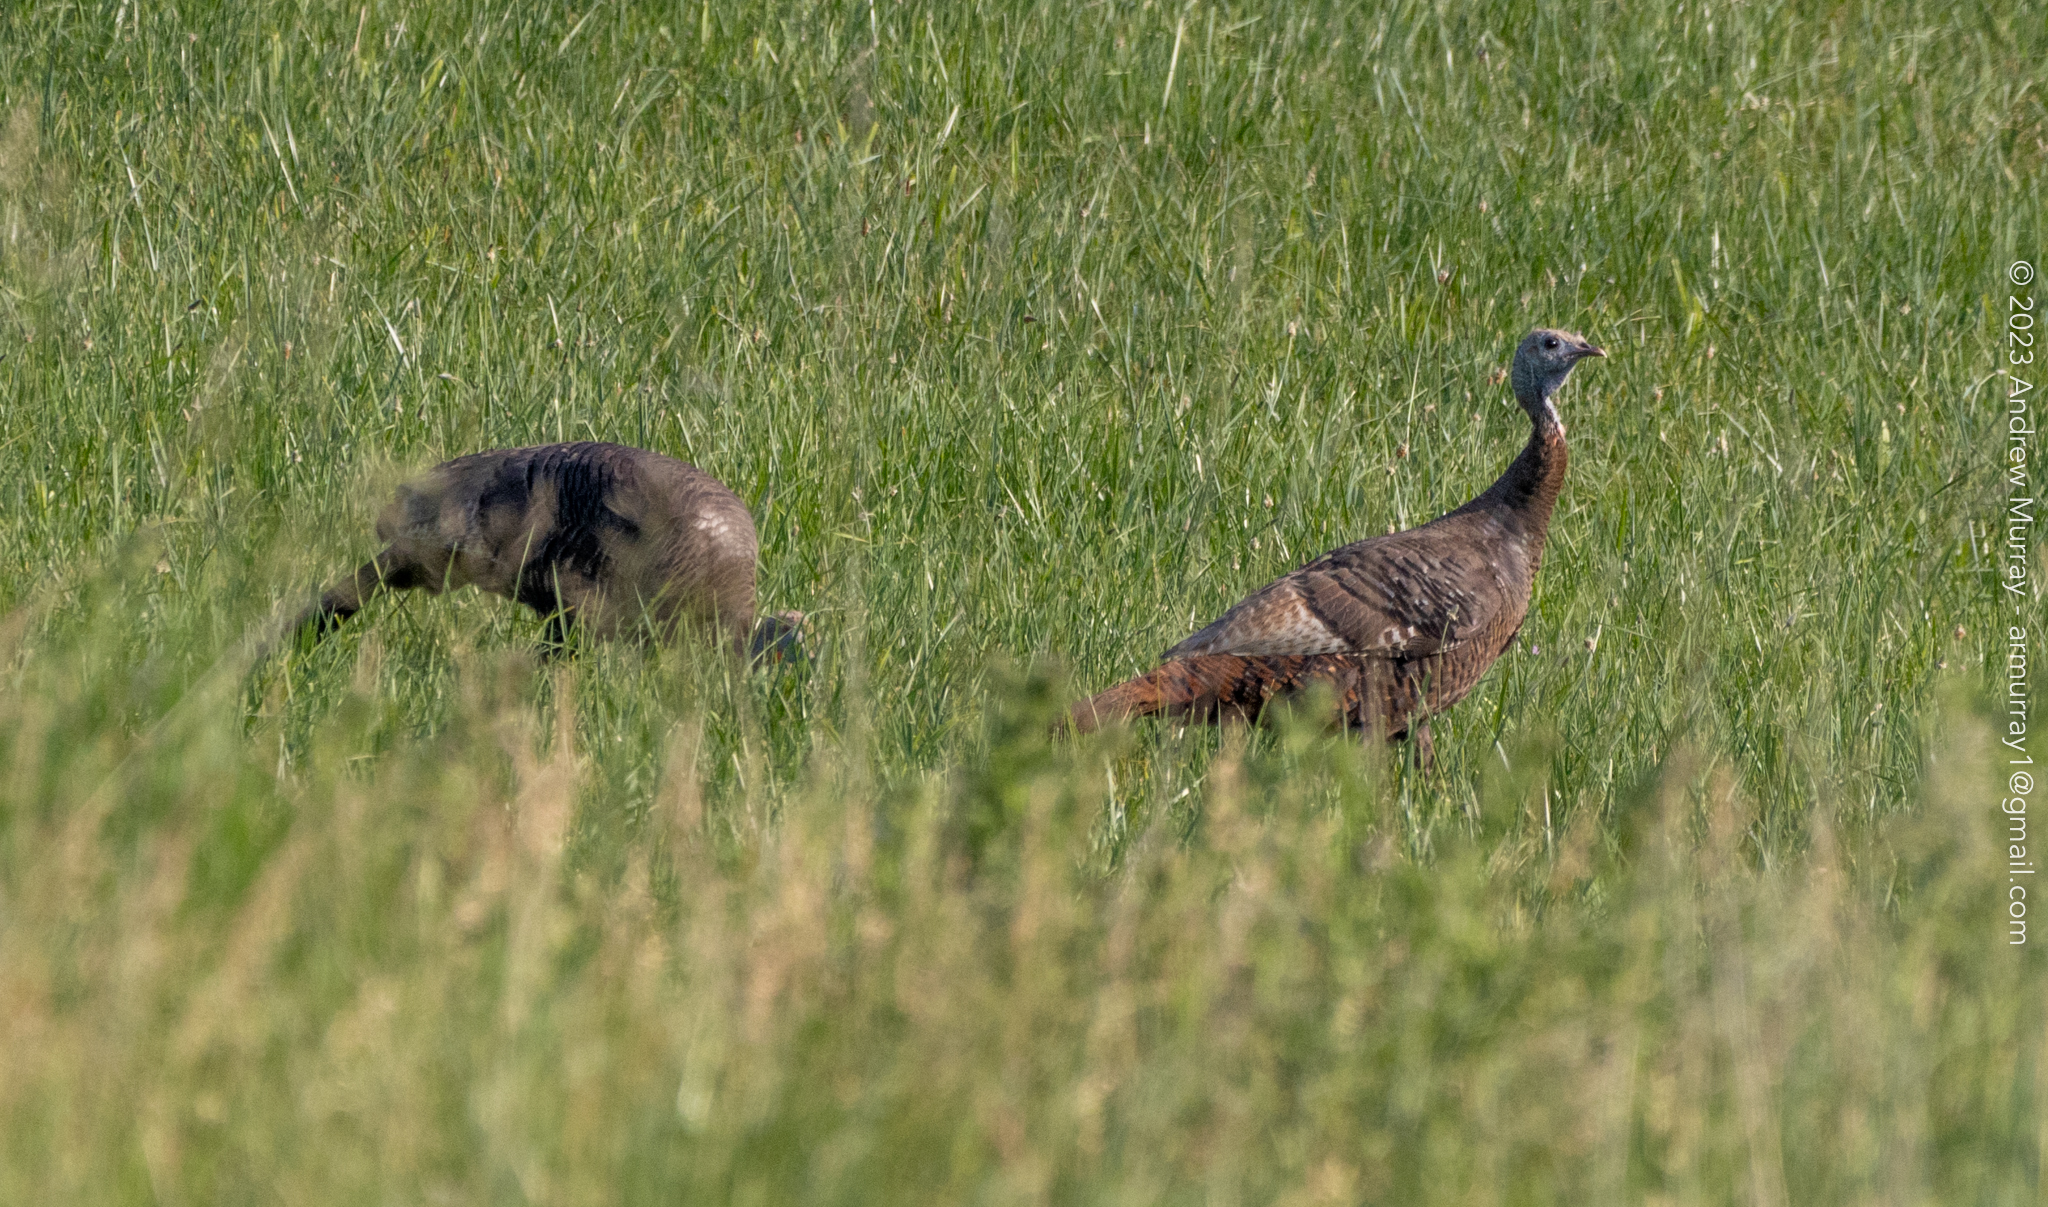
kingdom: Animalia
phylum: Chordata
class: Aves
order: Galliformes
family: Phasianidae
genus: Meleagris
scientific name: Meleagris gallopavo
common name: Wild turkey
